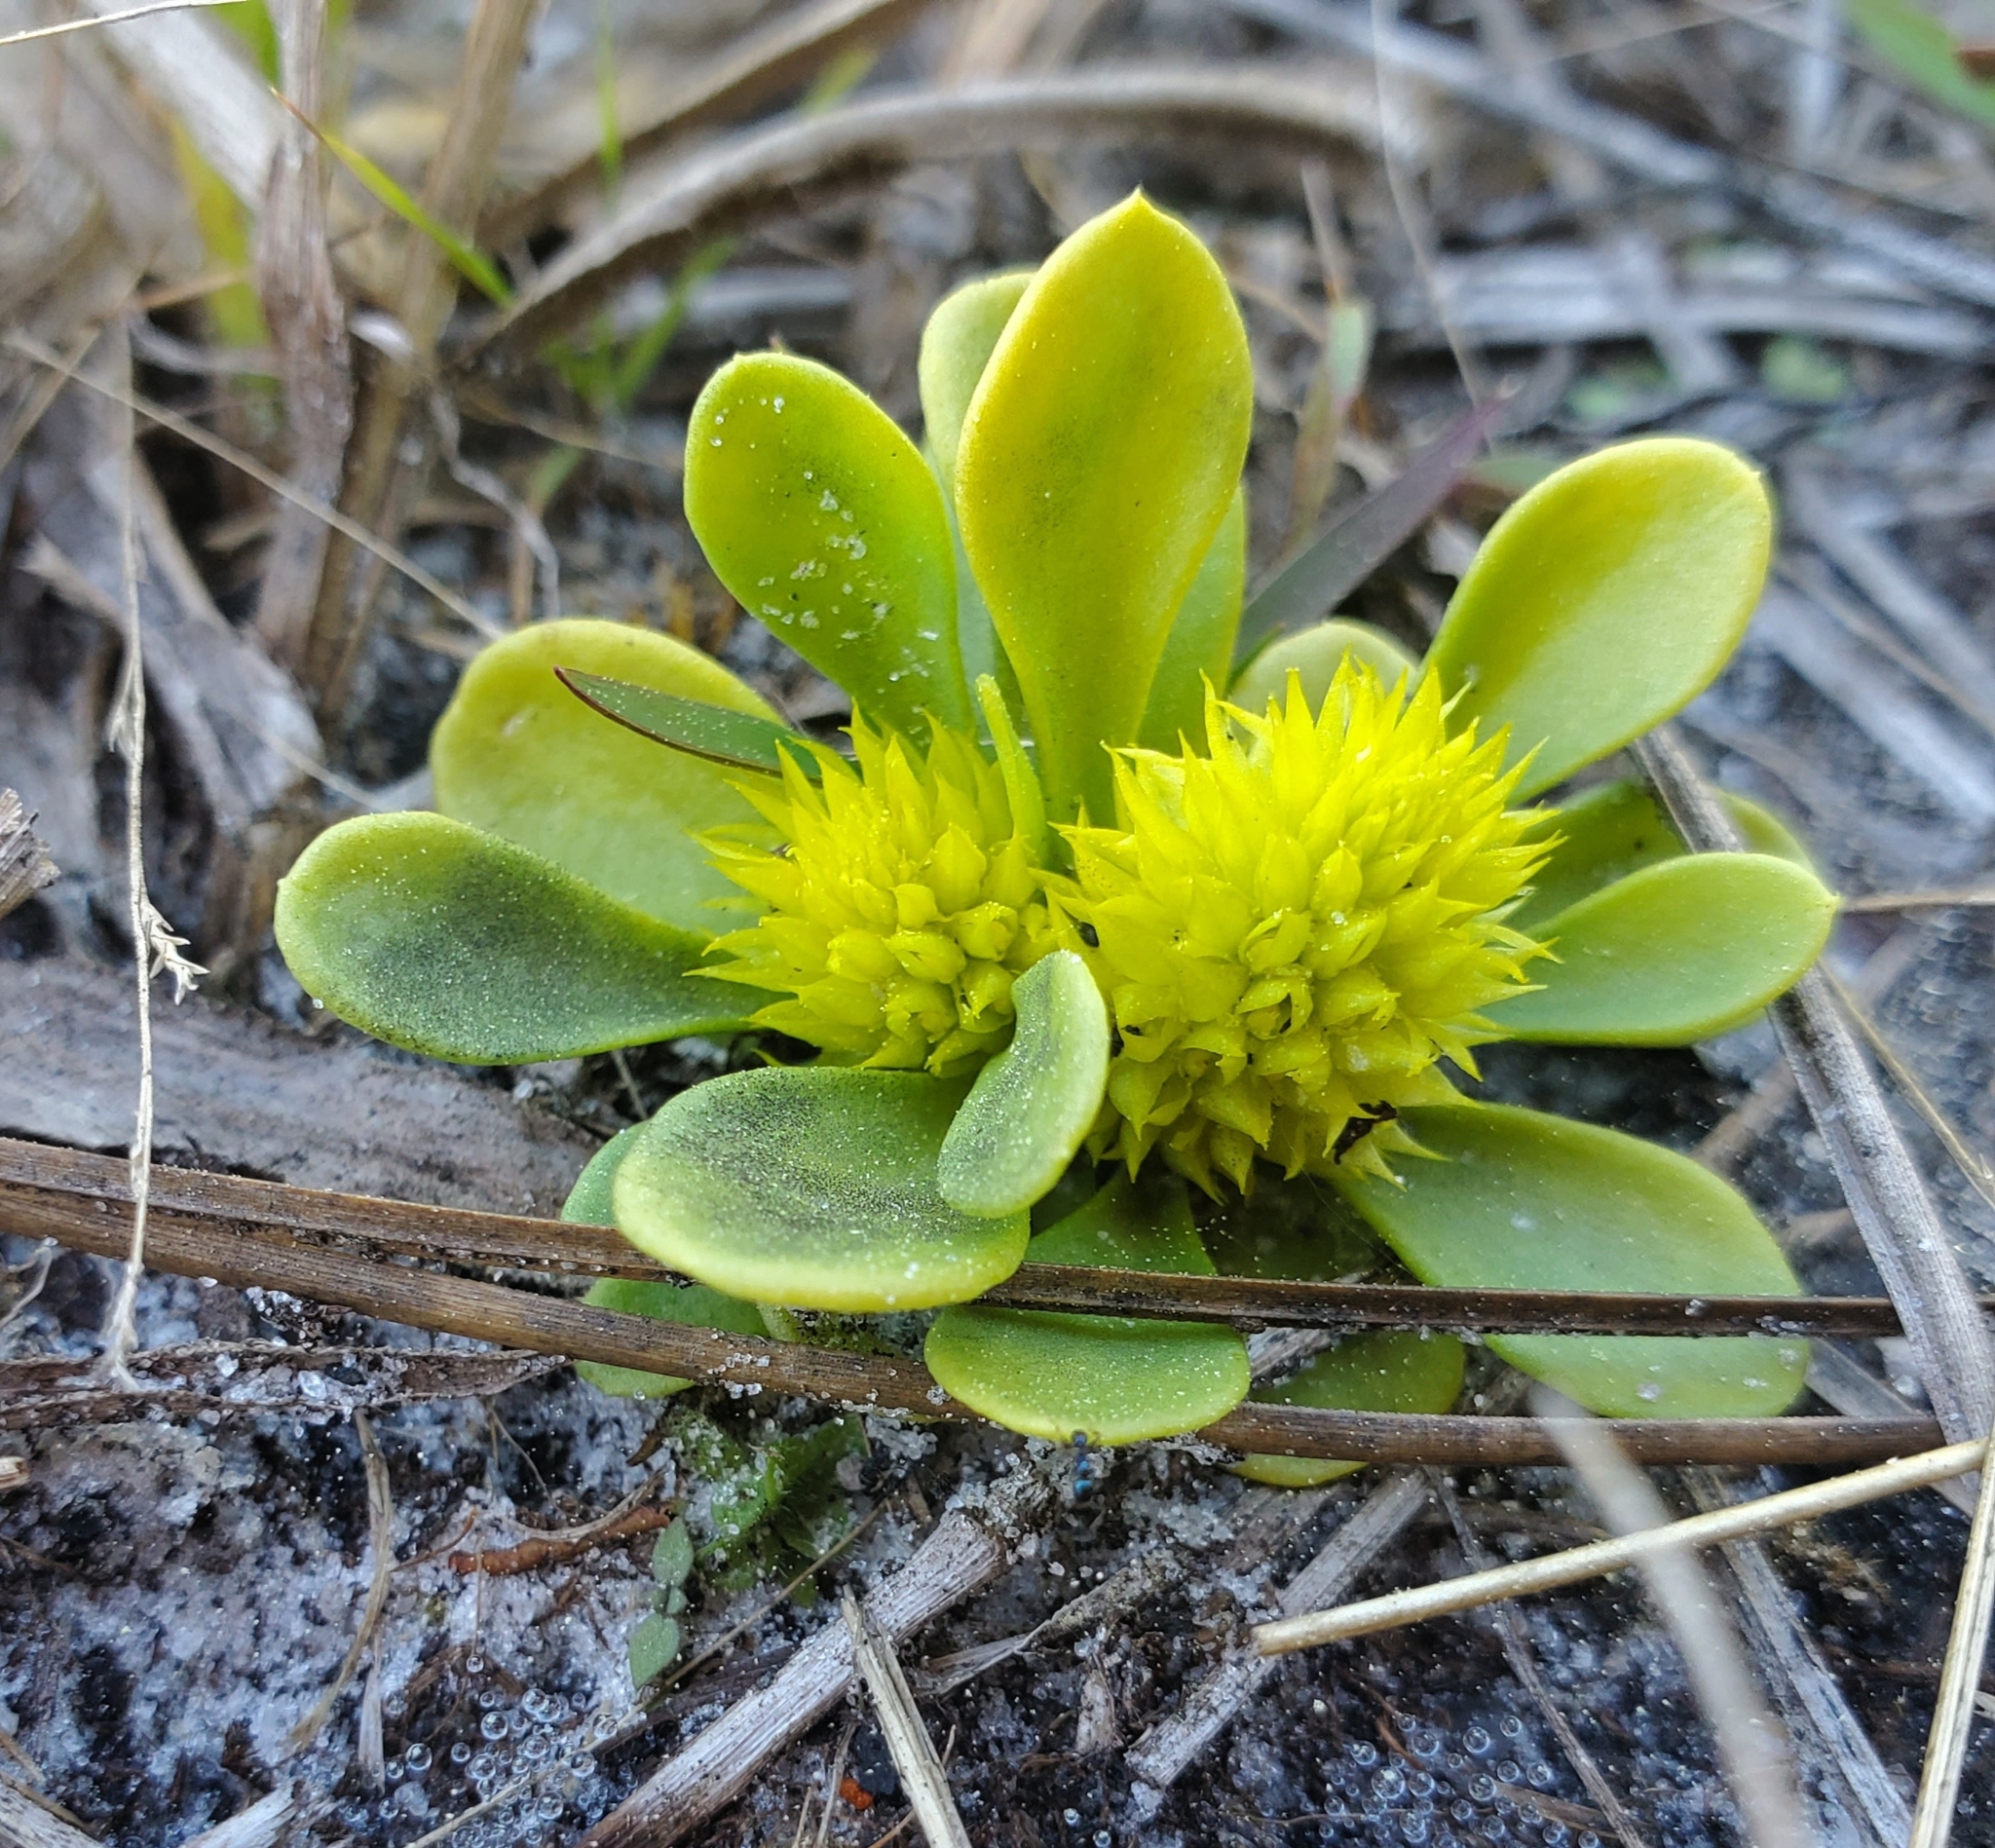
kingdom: Plantae
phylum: Tracheophyta
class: Magnoliopsida
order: Fabales
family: Polygalaceae
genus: Polygala
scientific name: Polygala nana
